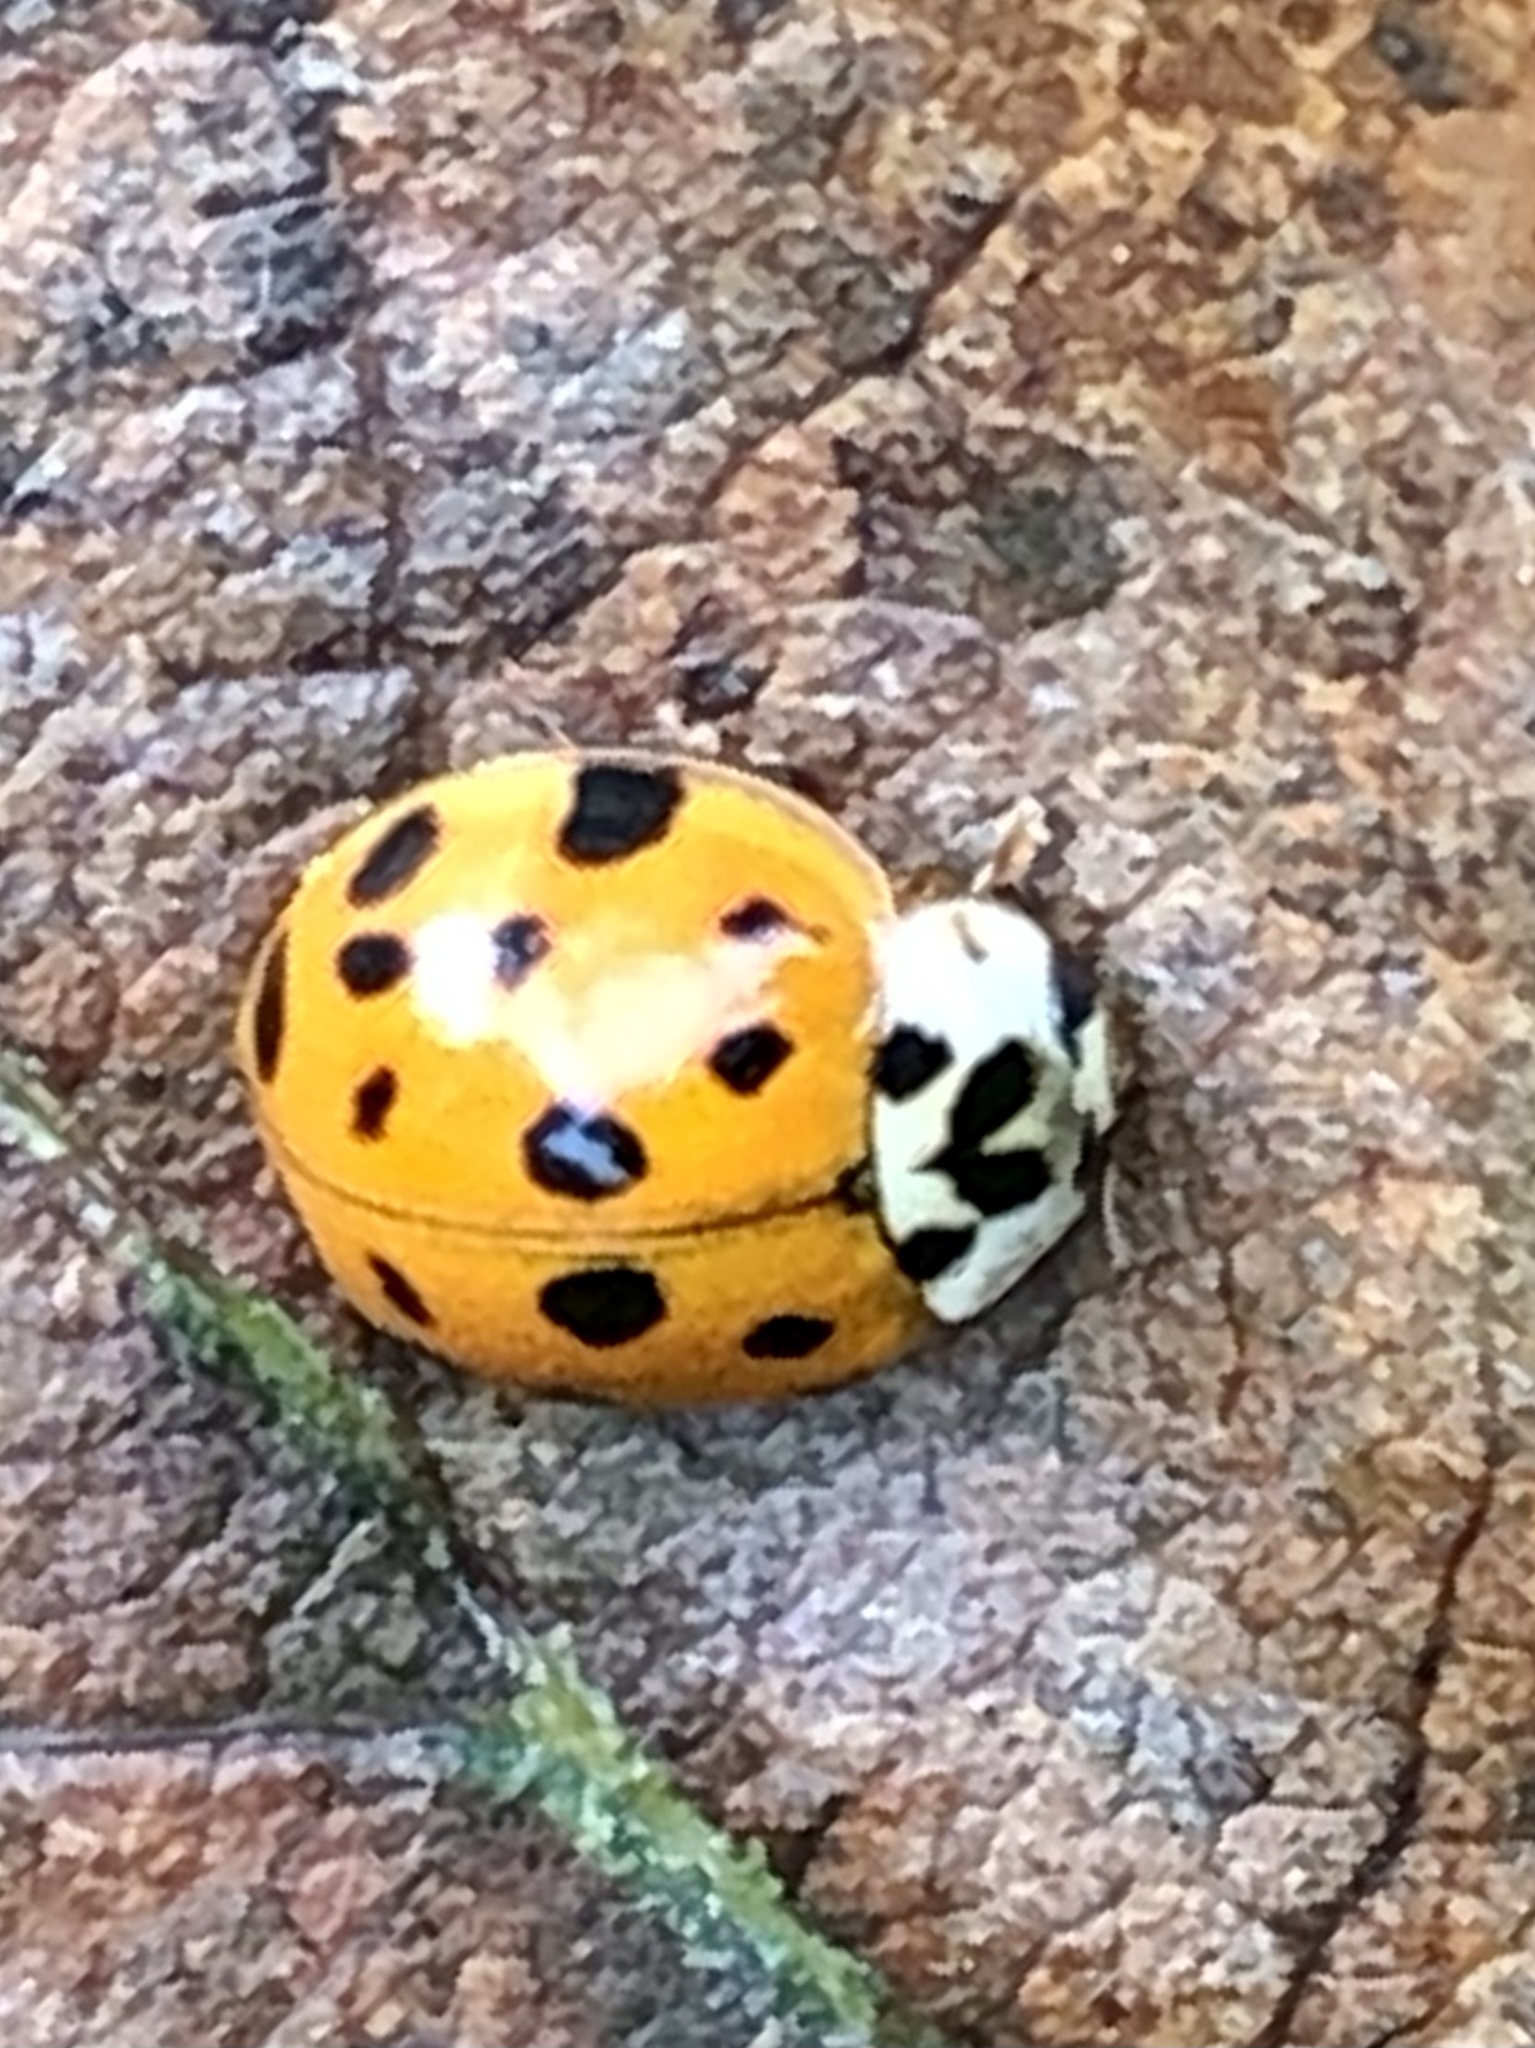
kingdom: Animalia
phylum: Arthropoda
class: Insecta
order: Coleoptera
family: Coccinellidae
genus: Harmonia
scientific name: Harmonia axyridis
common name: Harlequin ladybird
